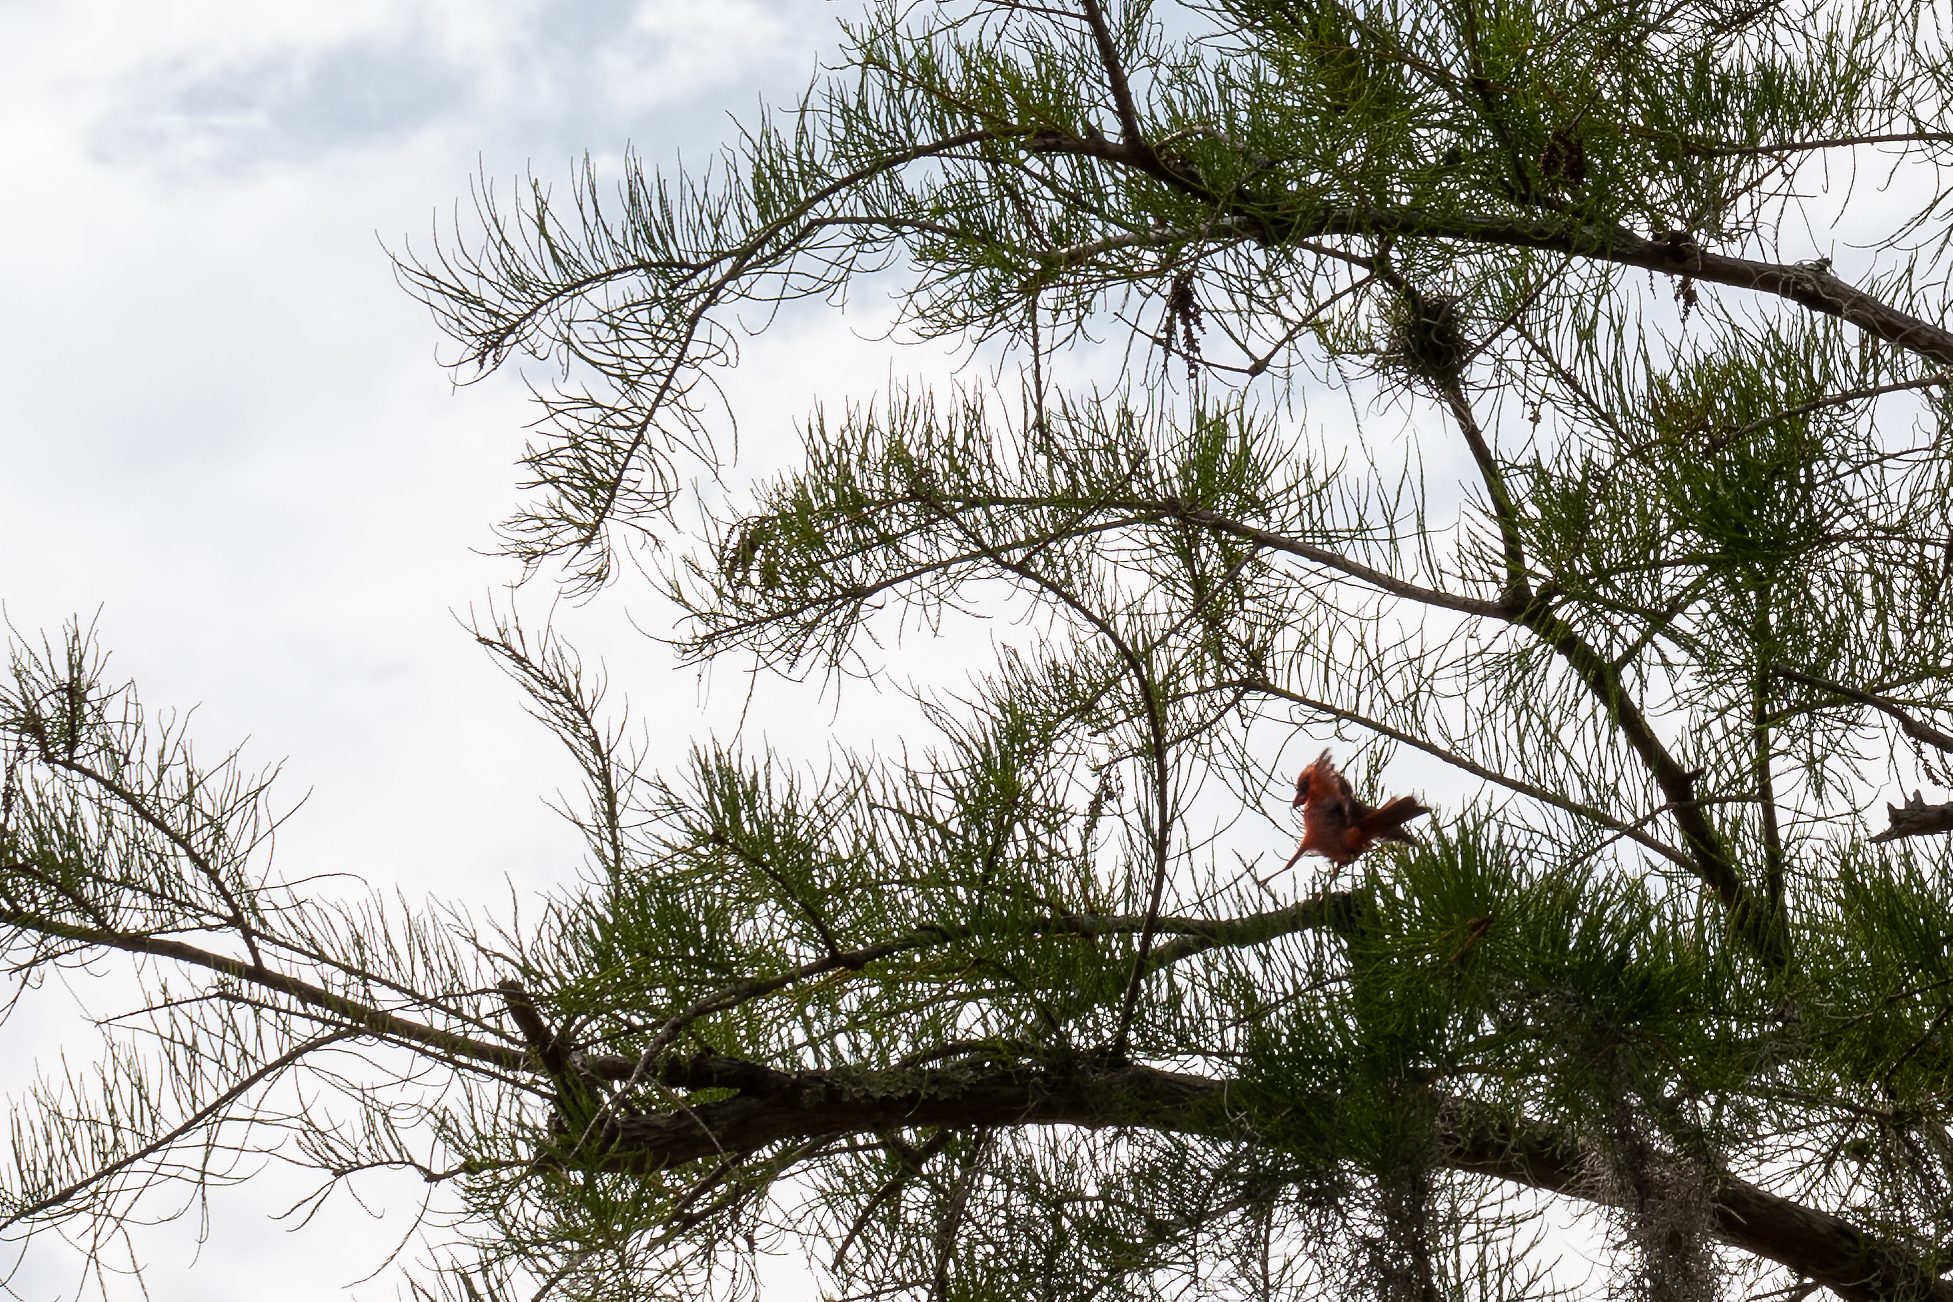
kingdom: Animalia
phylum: Chordata
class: Aves
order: Passeriformes
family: Cardinalidae
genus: Cardinalis
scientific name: Cardinalis cardinalis
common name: Northern cardinal
